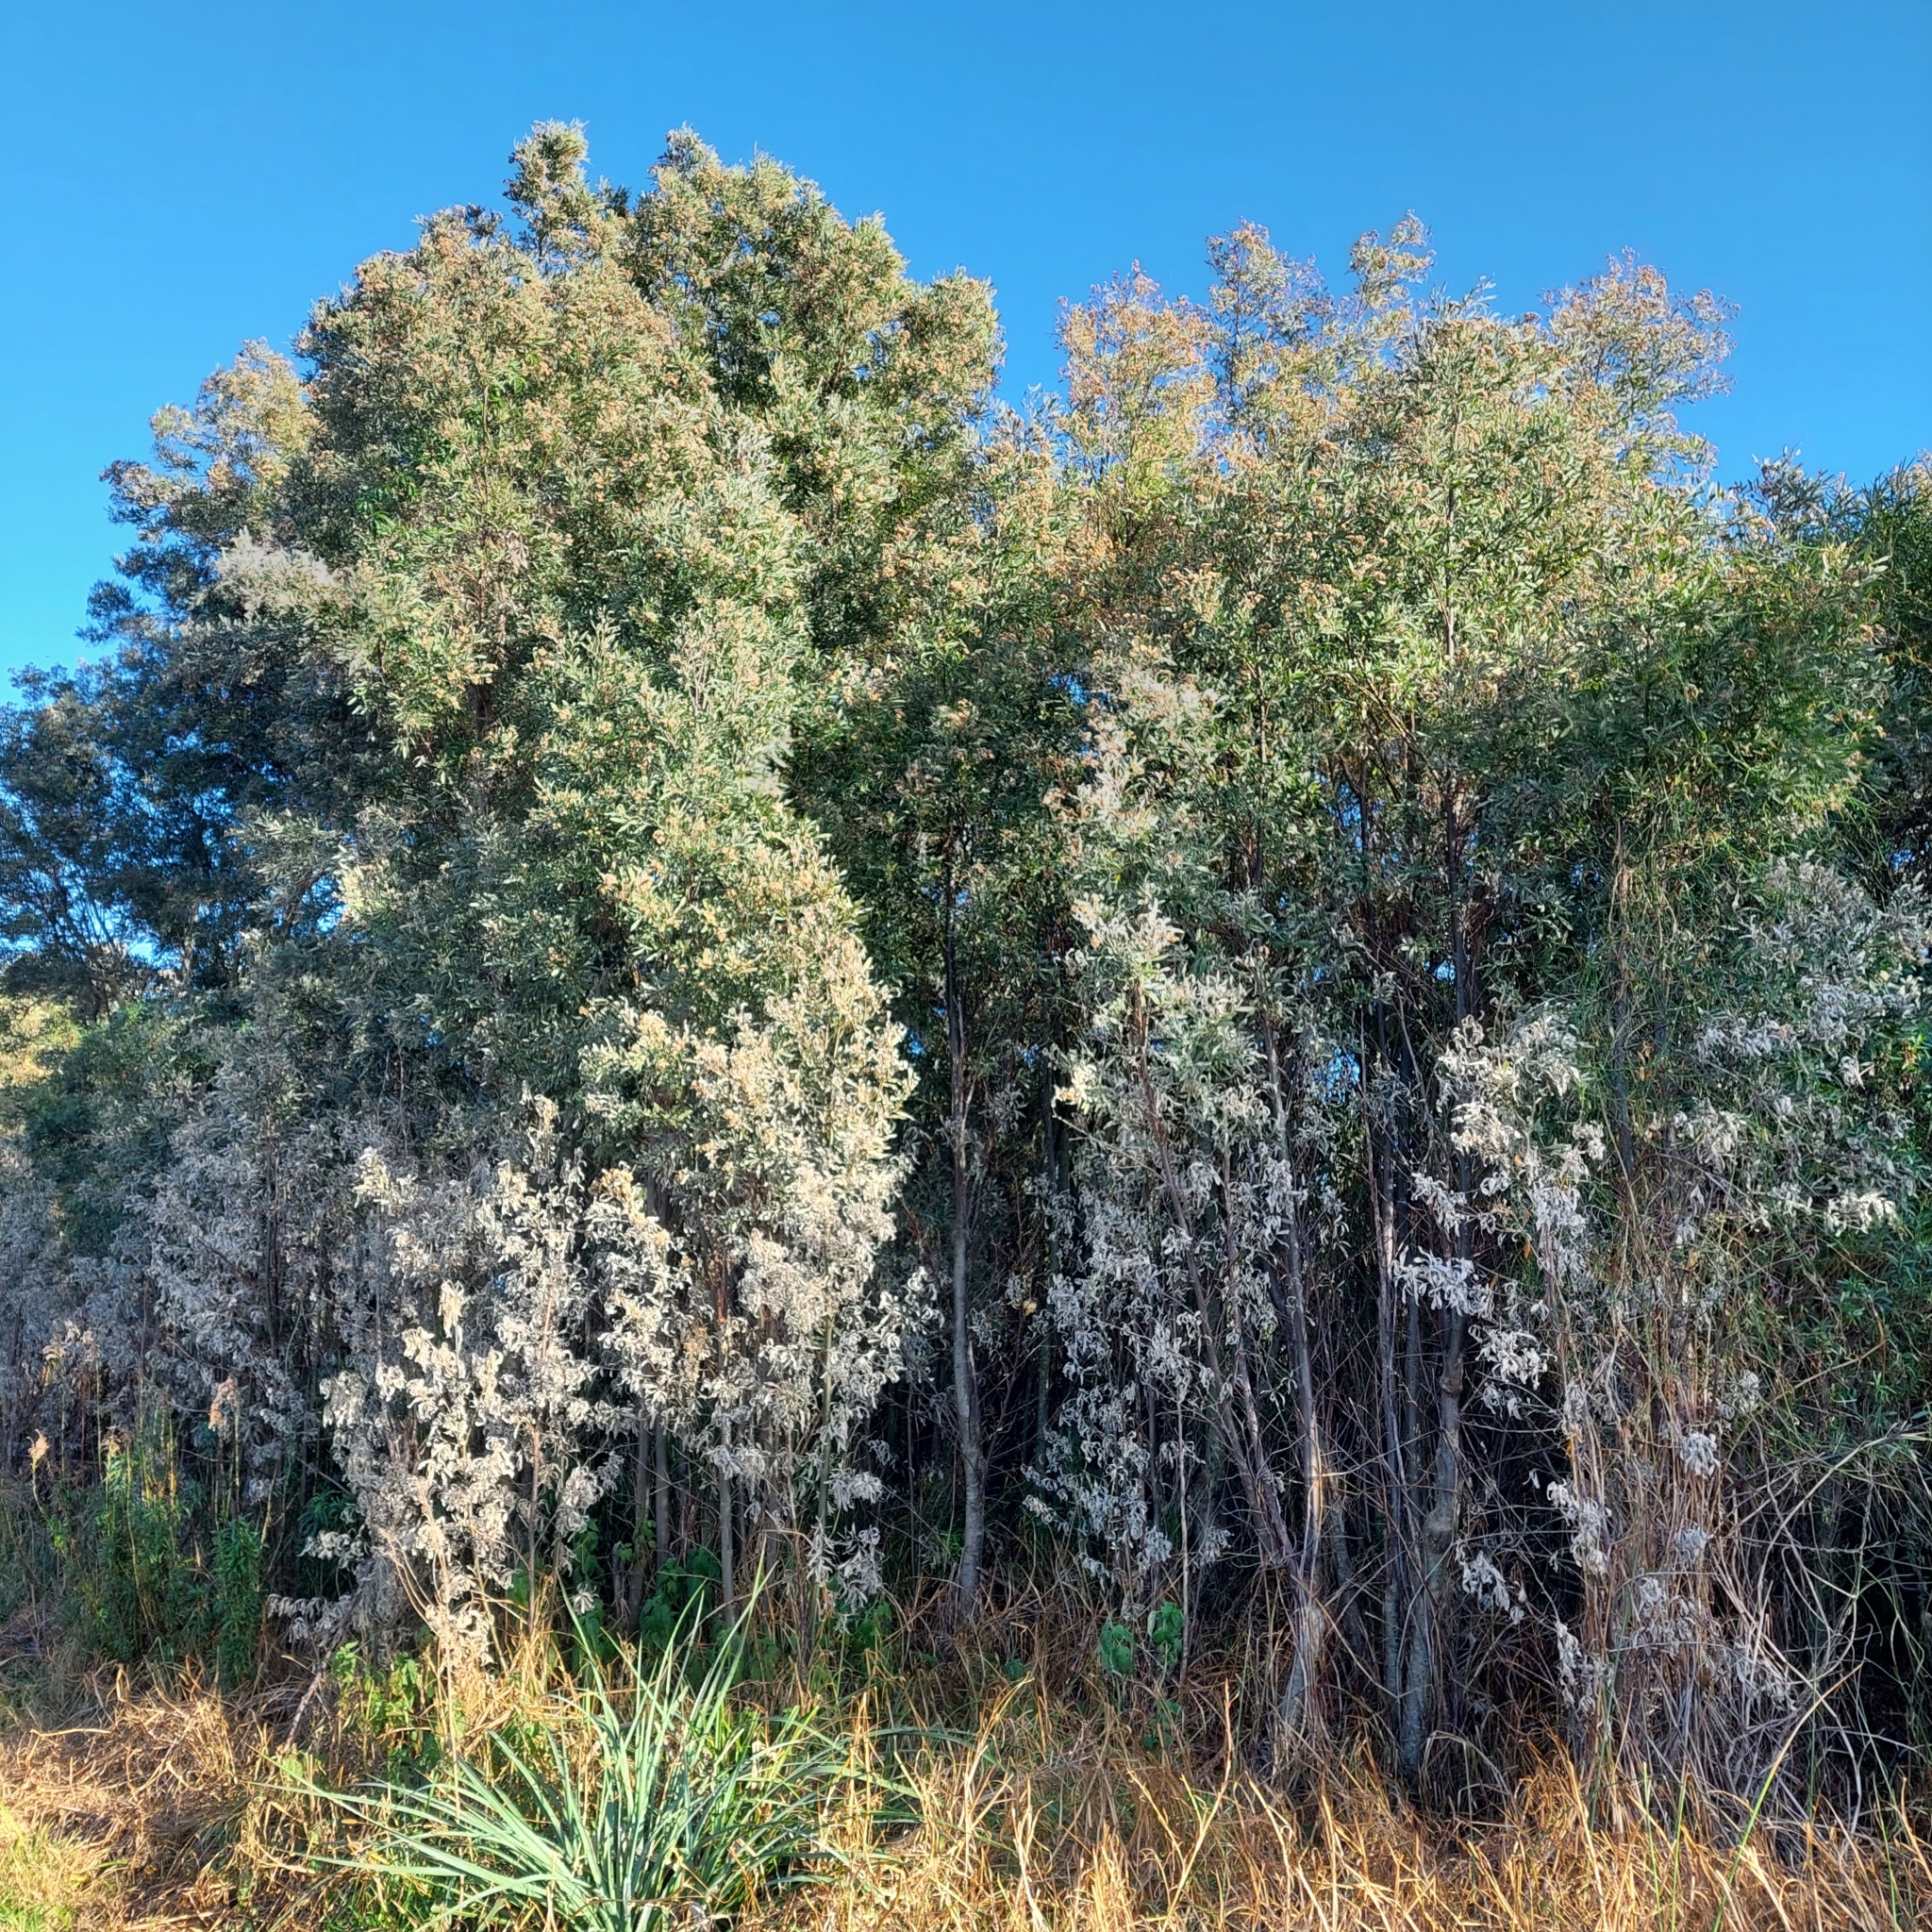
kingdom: Plantae
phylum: Tracheophyta
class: Magnoliopsida
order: Asterales
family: Asteraceae
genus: Tessaria
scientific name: Tessaria integrifolia
